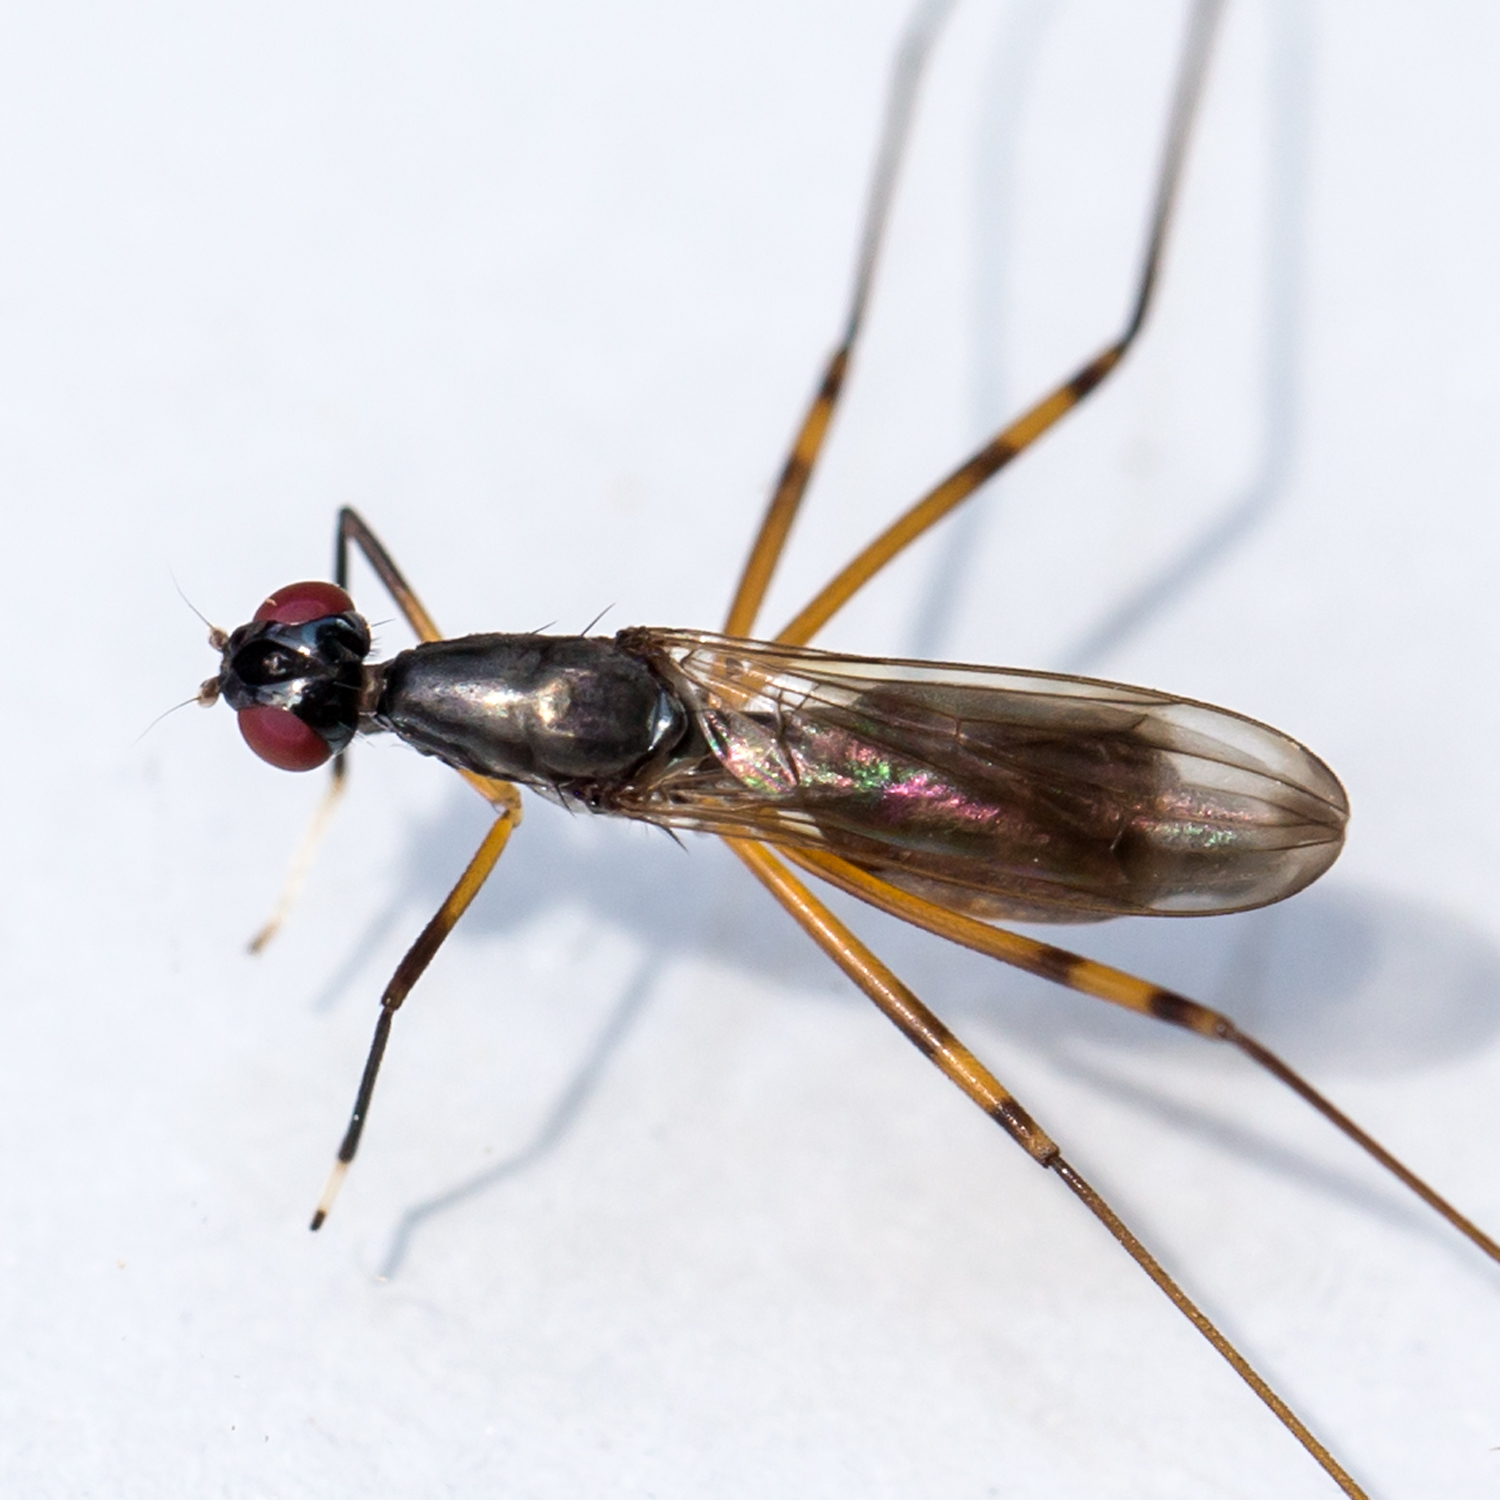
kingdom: Animalia
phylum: Arthropoda
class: Insecta
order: Diptera
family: Micropezidae
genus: Rainieria
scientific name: Rainieria antennaepes
